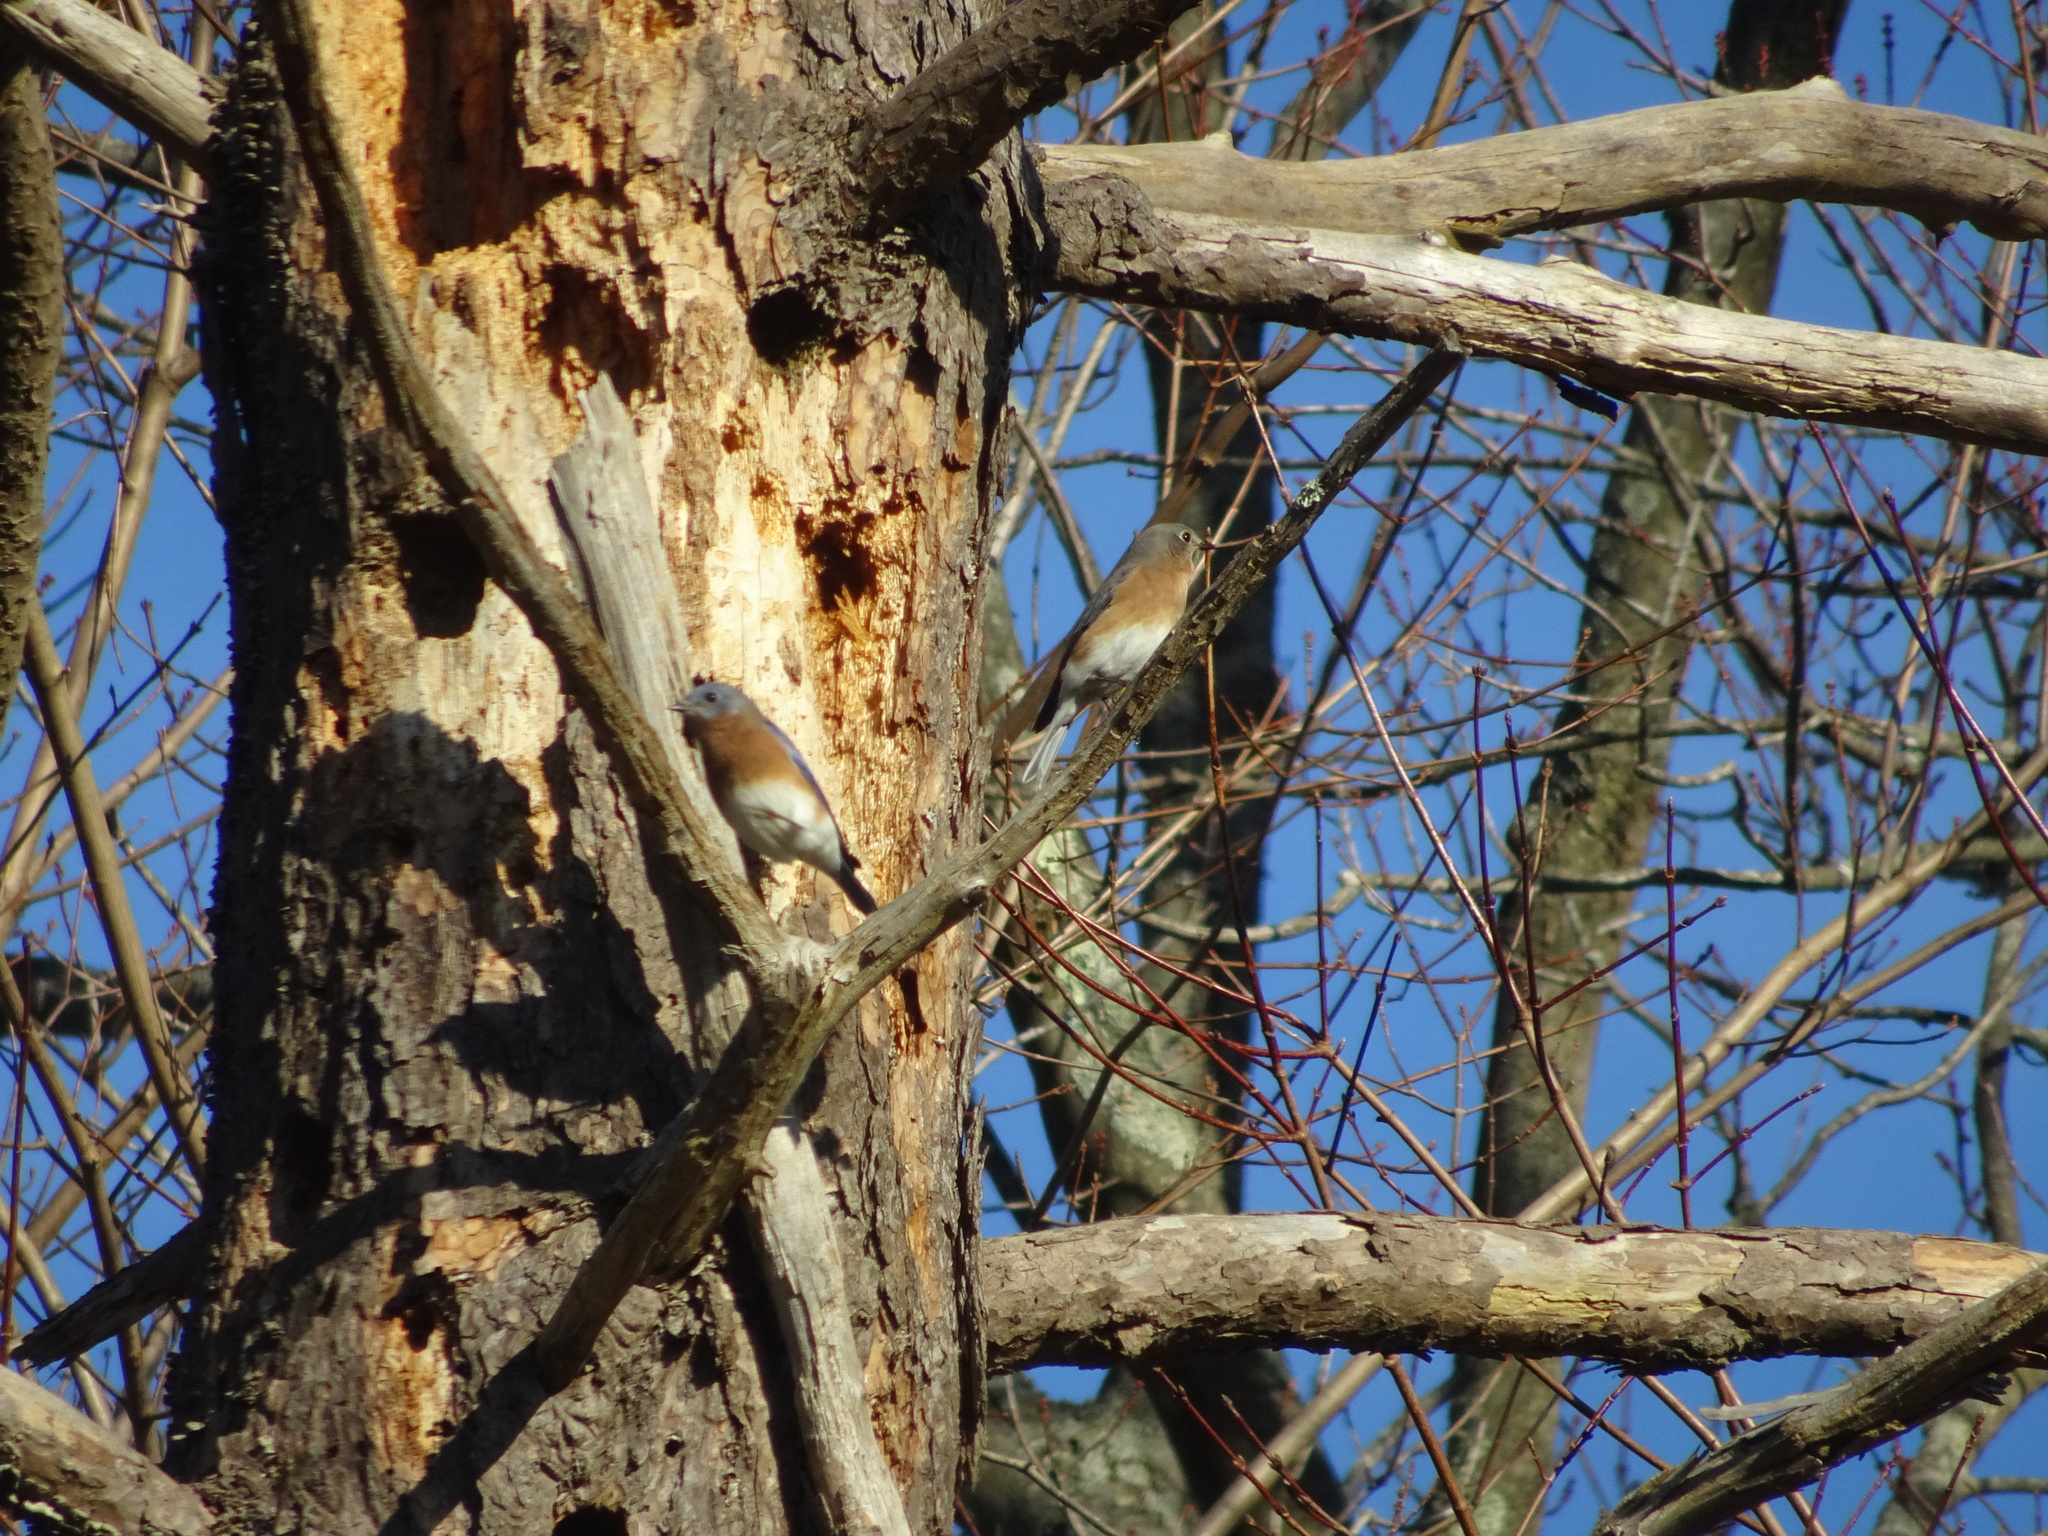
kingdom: Animalia
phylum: Chordata
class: Aves
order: Passeriformes
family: Turdidae
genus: Sialia
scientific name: Sialia sialis
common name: Eastern bluebird
